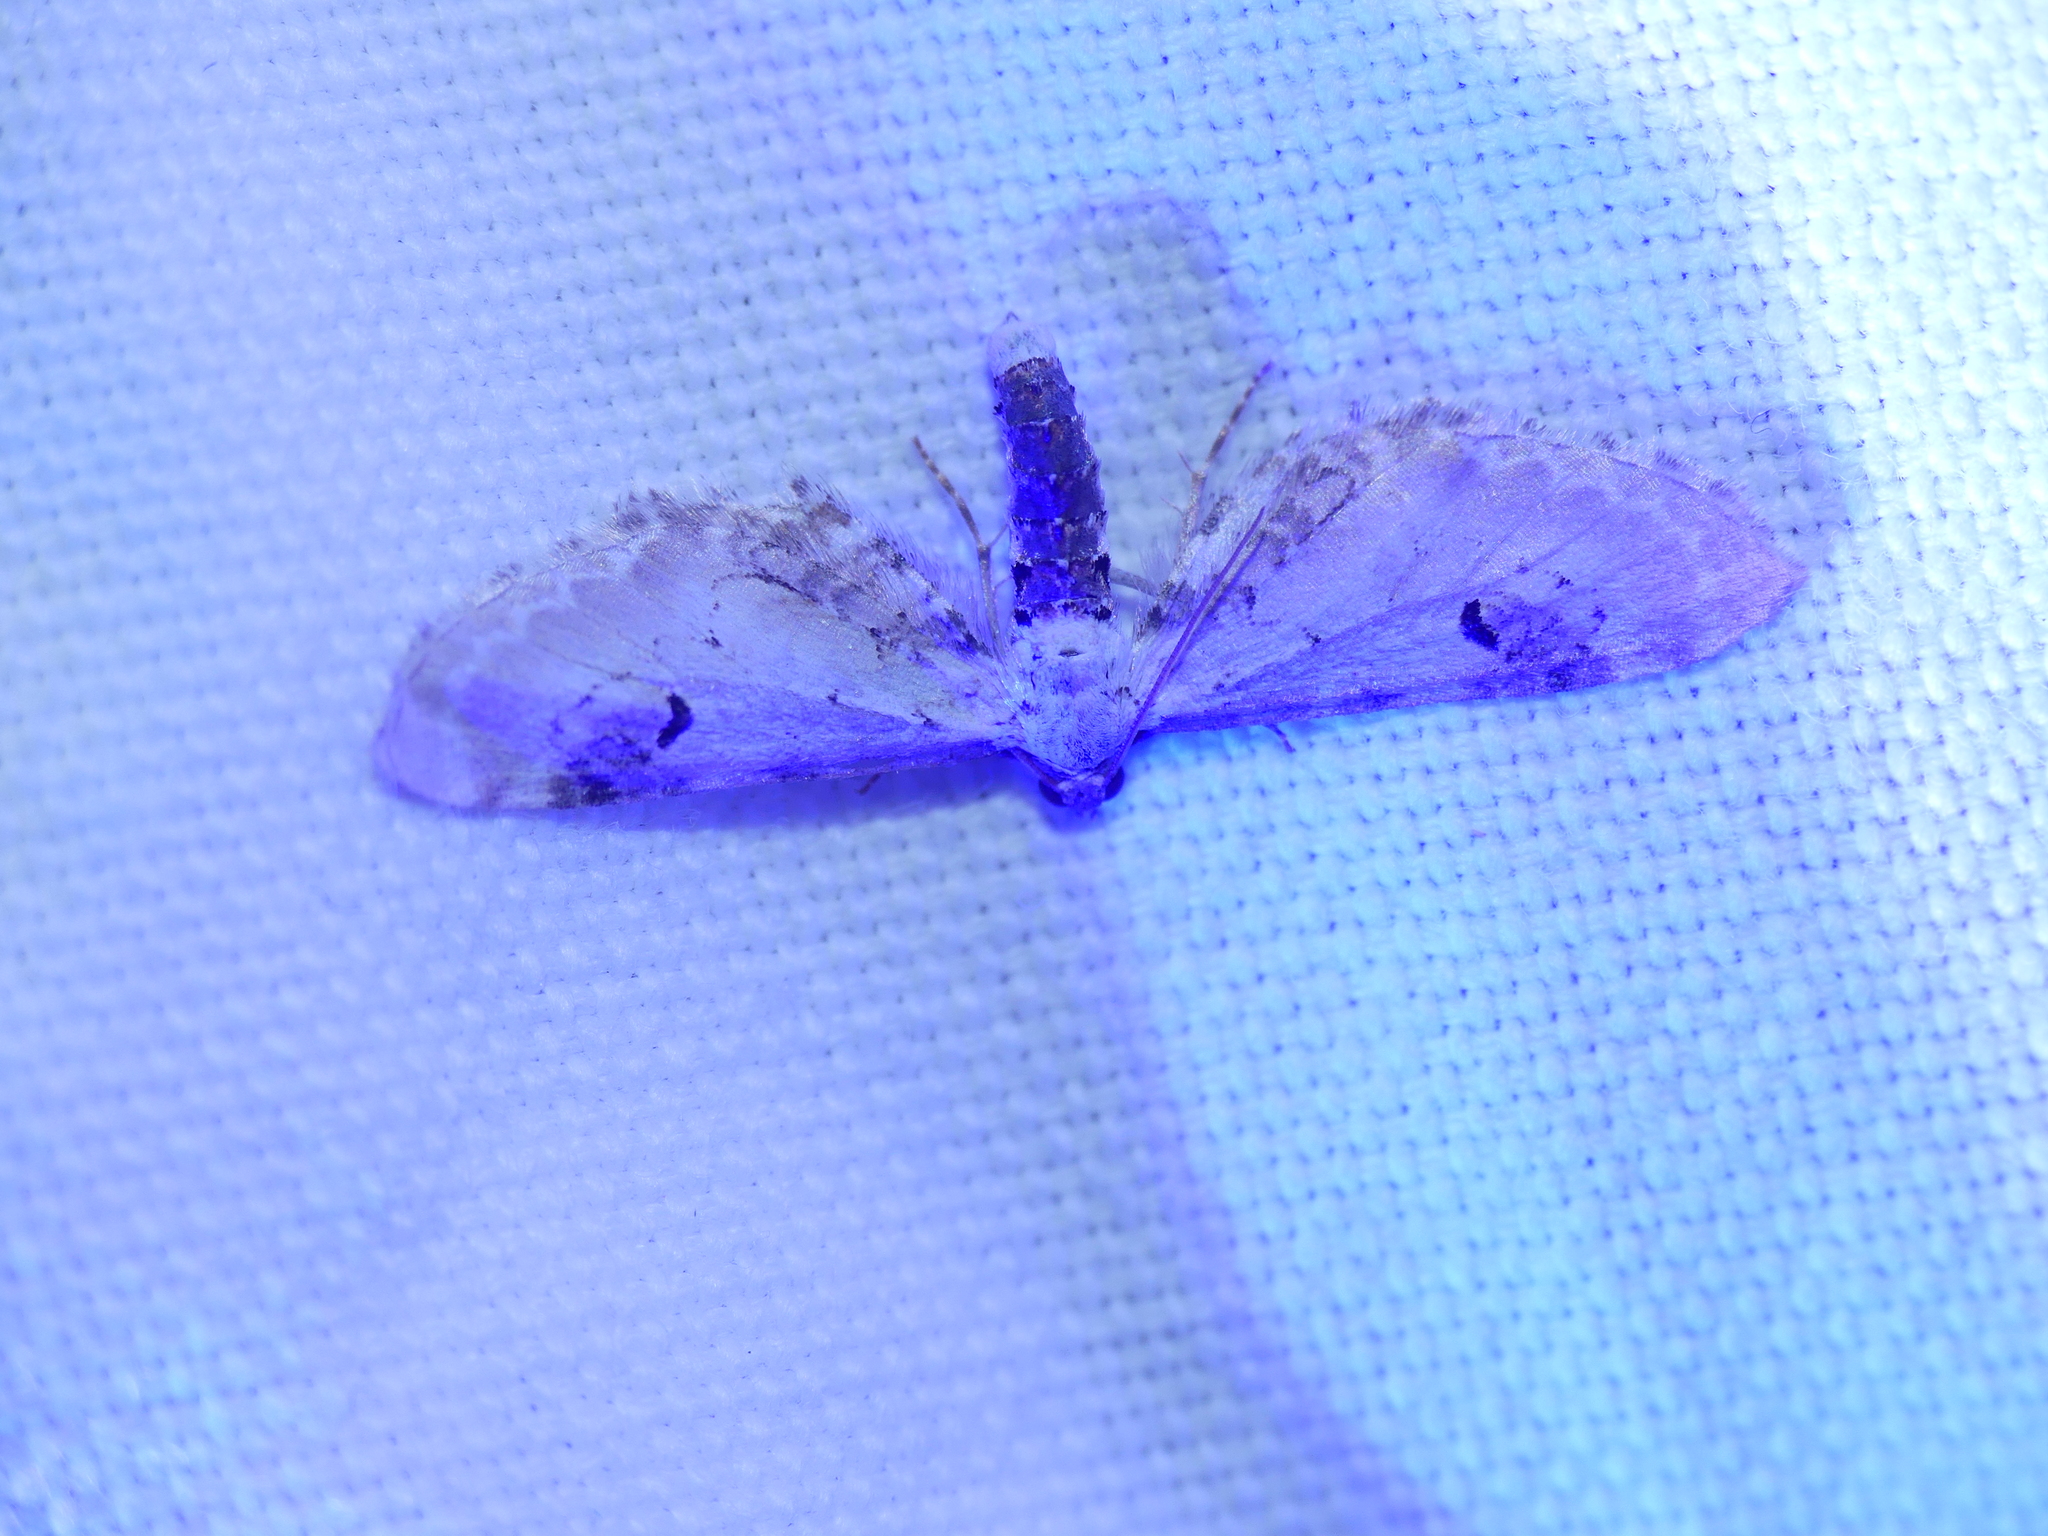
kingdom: Animalia
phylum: Arthropoda
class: Insecta
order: Lepidoptera
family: Geometridae
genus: Eupithecia
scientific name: Eupithecia centaureata
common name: Lime-speck pug
